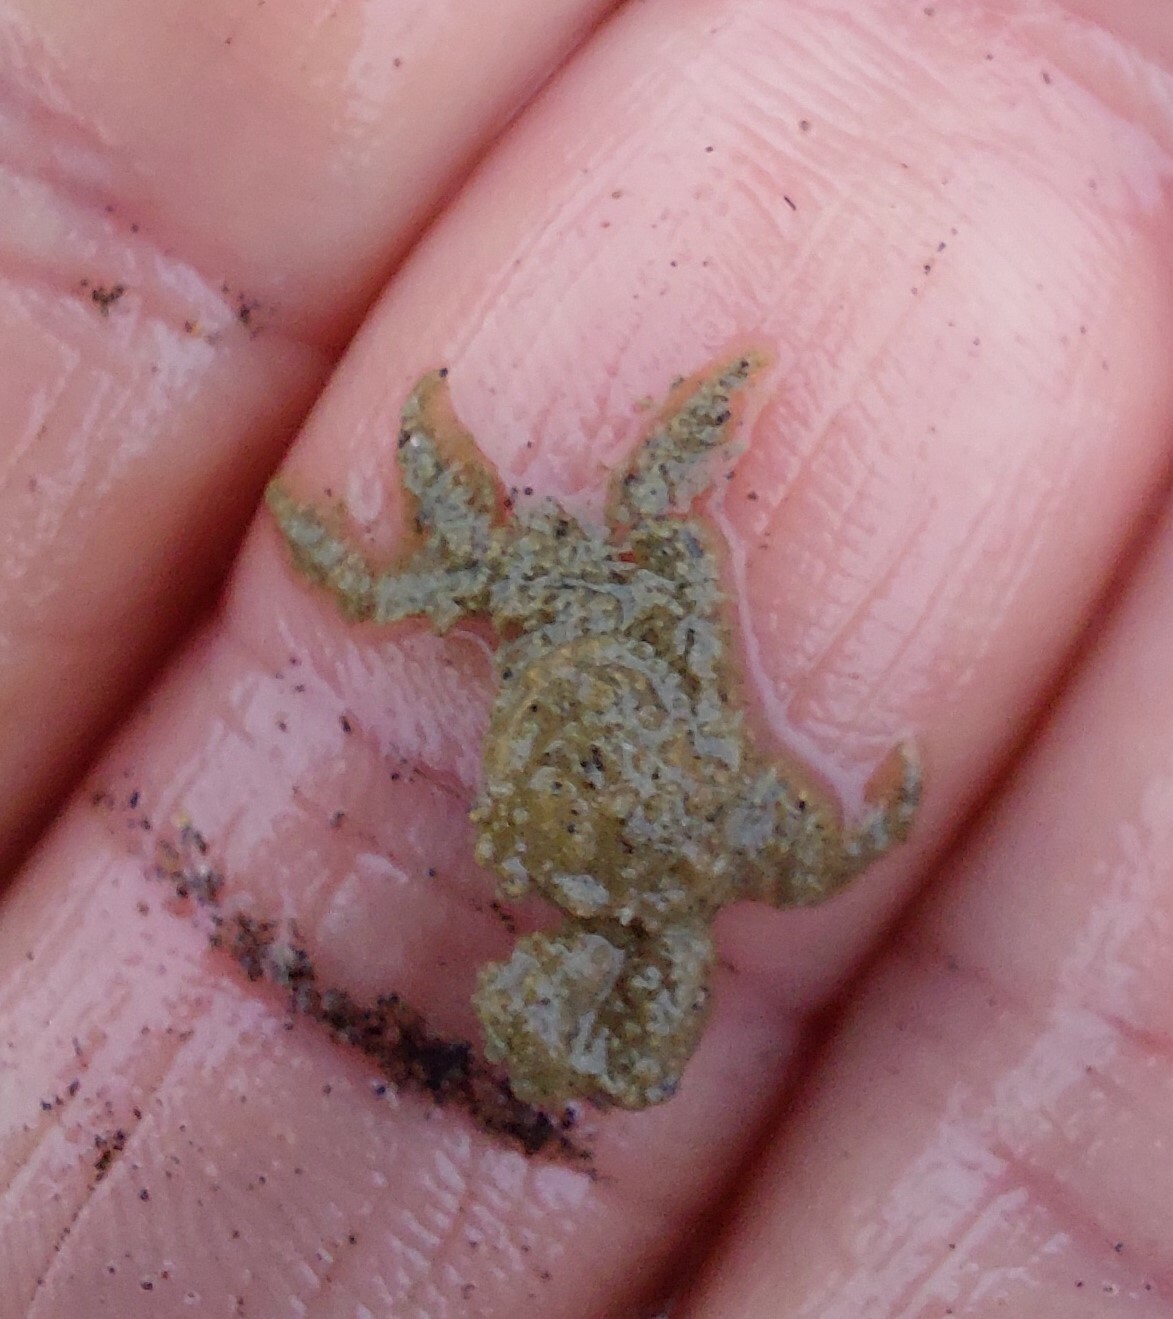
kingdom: Animalia
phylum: Arthropoda
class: Malacostraca
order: Decapoda
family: Hymenosomatidae
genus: Neohymenicus
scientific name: Neohymenicus pubescens
